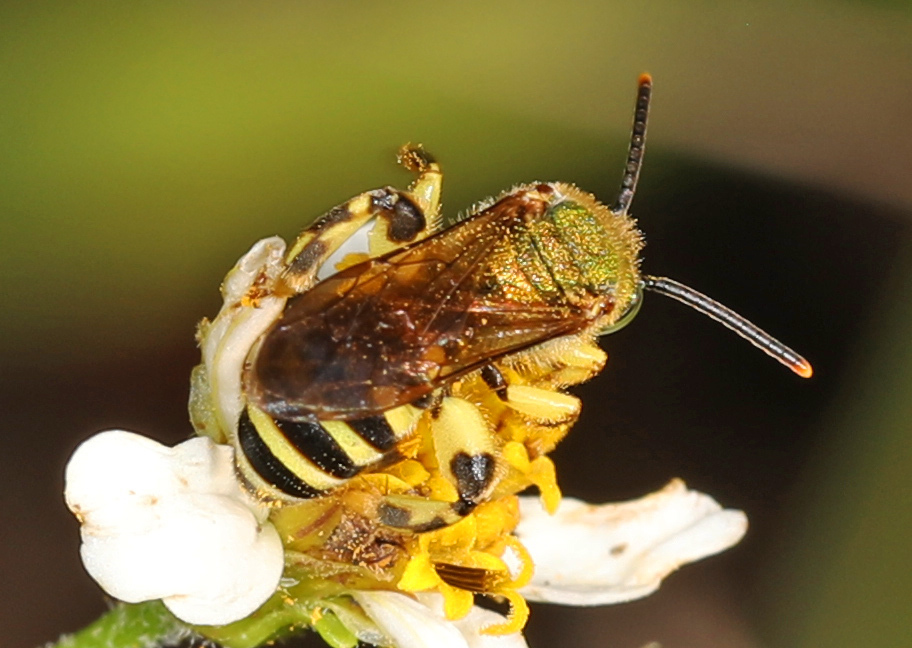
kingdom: Animalia
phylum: Arthropoda
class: Insecta
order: Hymenoptera
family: Halictidae
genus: Agapostemon
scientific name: Agapostemon splendens
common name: Brown-winged striped sweat bee
